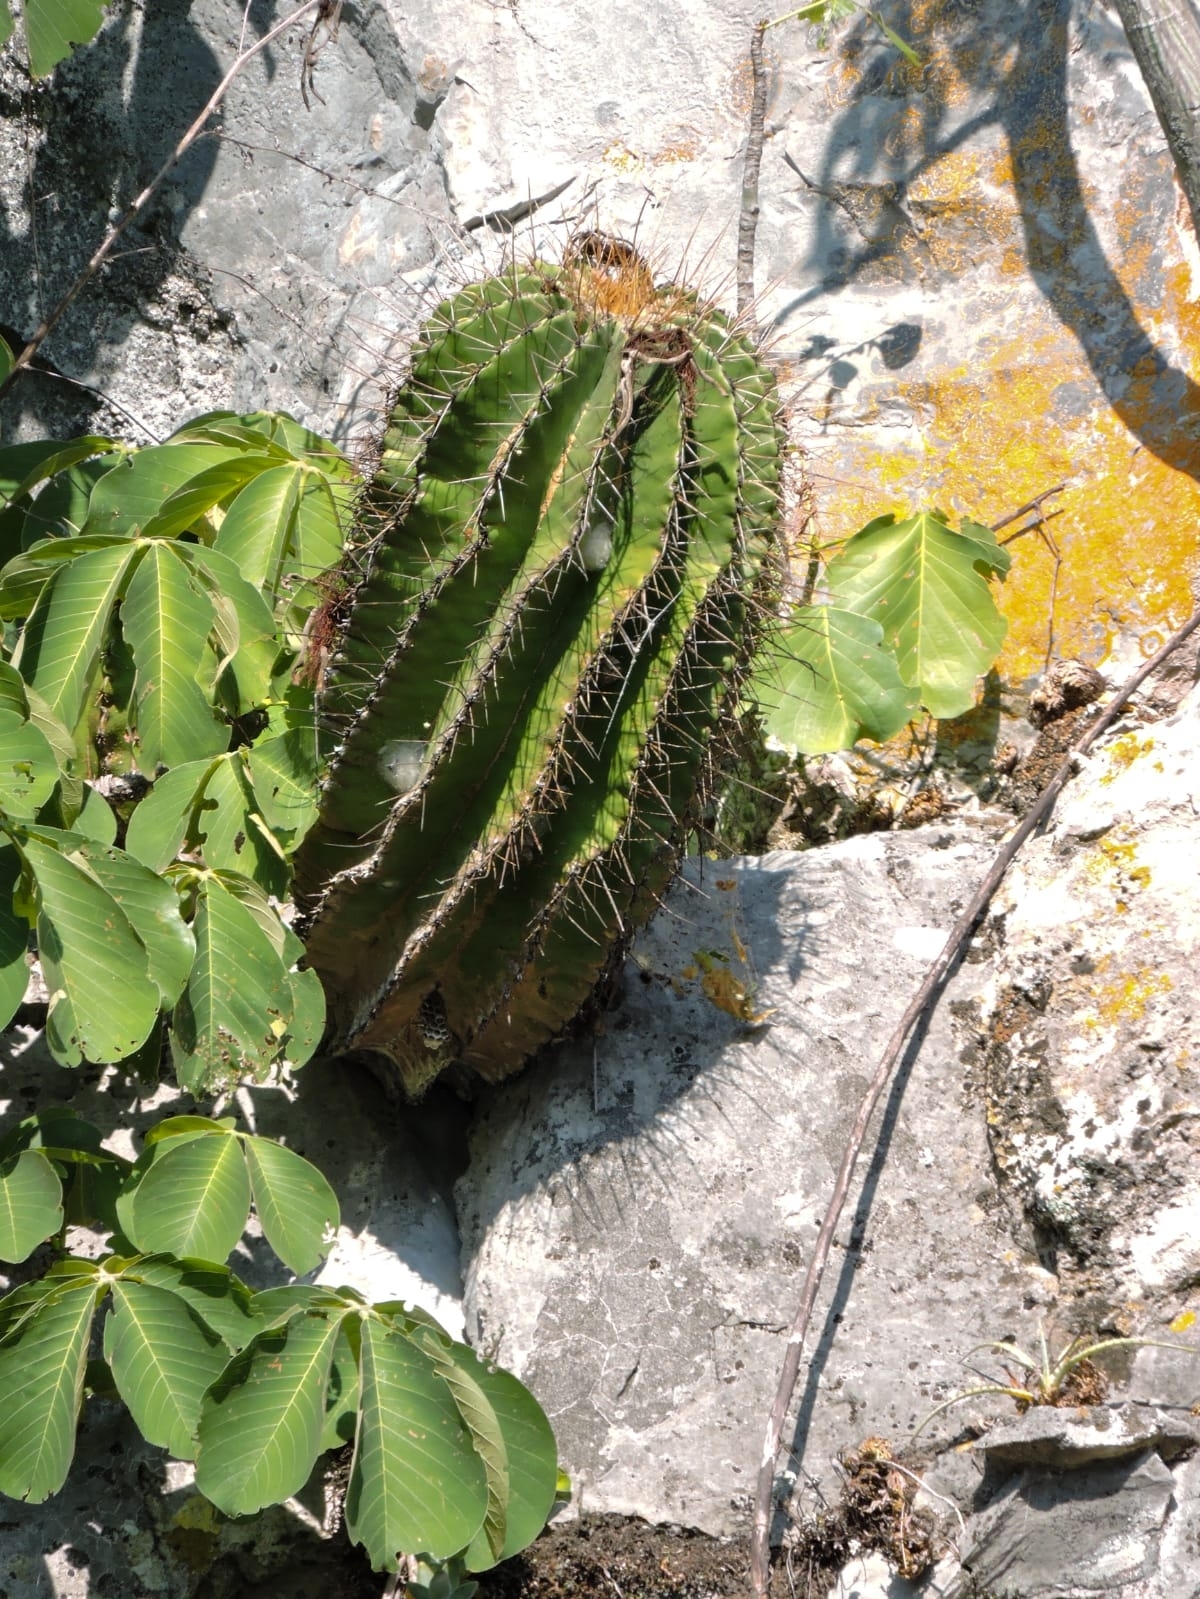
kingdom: Plantae
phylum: Tracheophyta
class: Magnoliopsida
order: Caryophyllales
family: Cactaceae
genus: Parrycactus
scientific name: Parrycactus echidne
